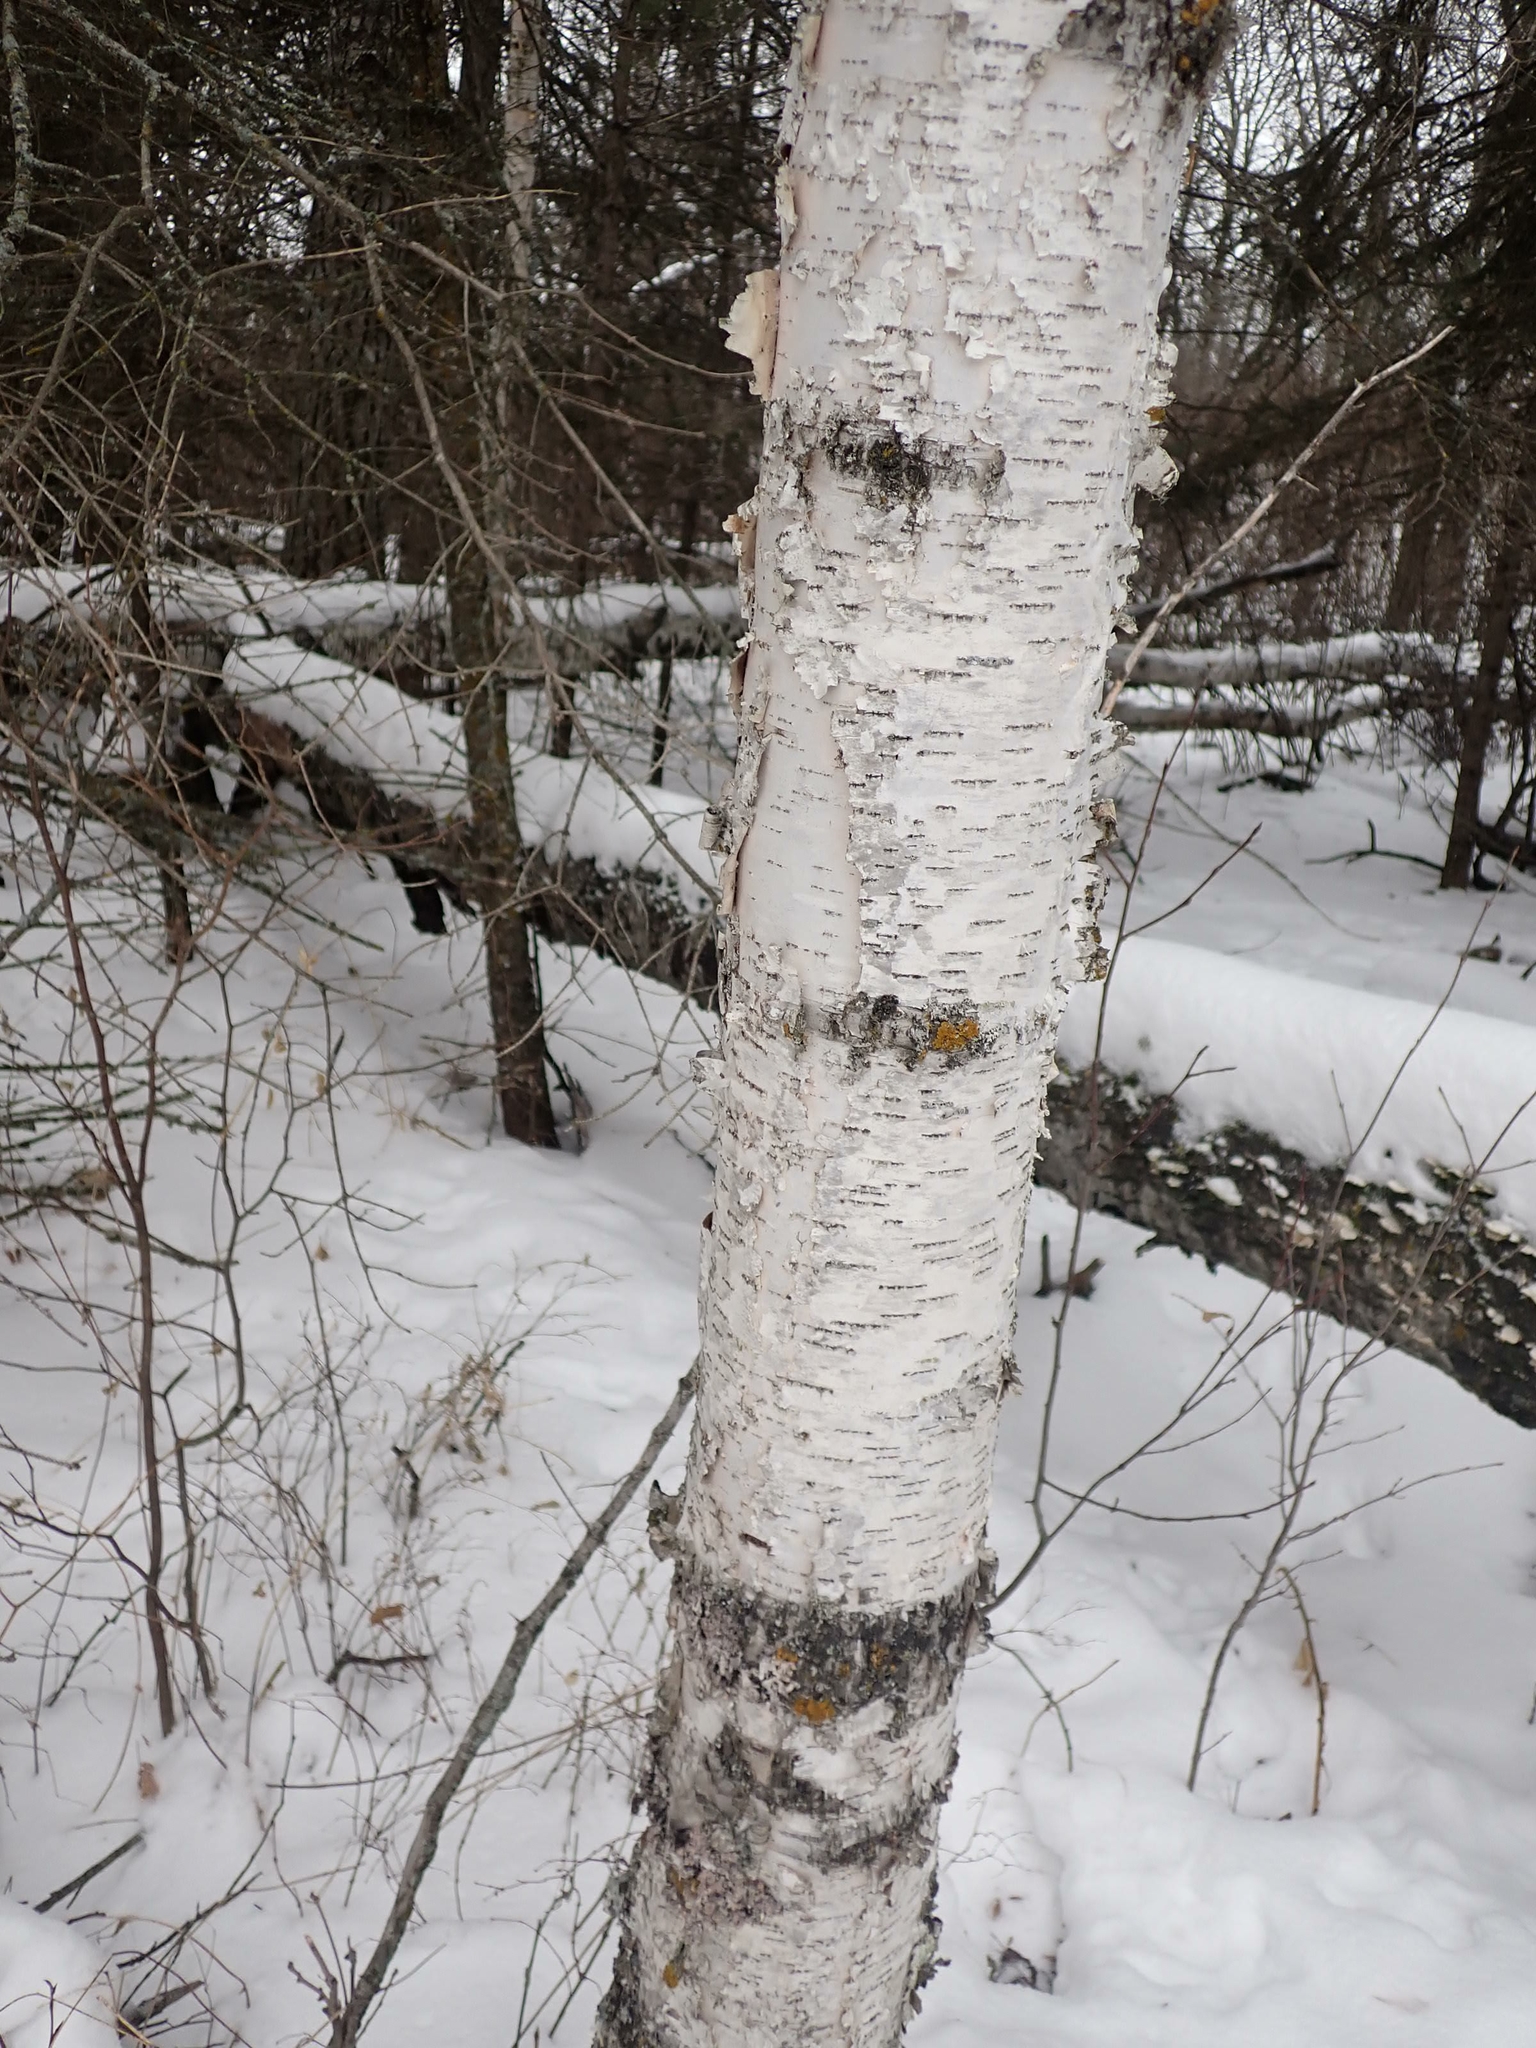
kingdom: Plantae
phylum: Tracheophyta
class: Magnoliopsida
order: Fagales
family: Betulaceae
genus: Betula
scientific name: Betula papyrifera
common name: Paper birch
